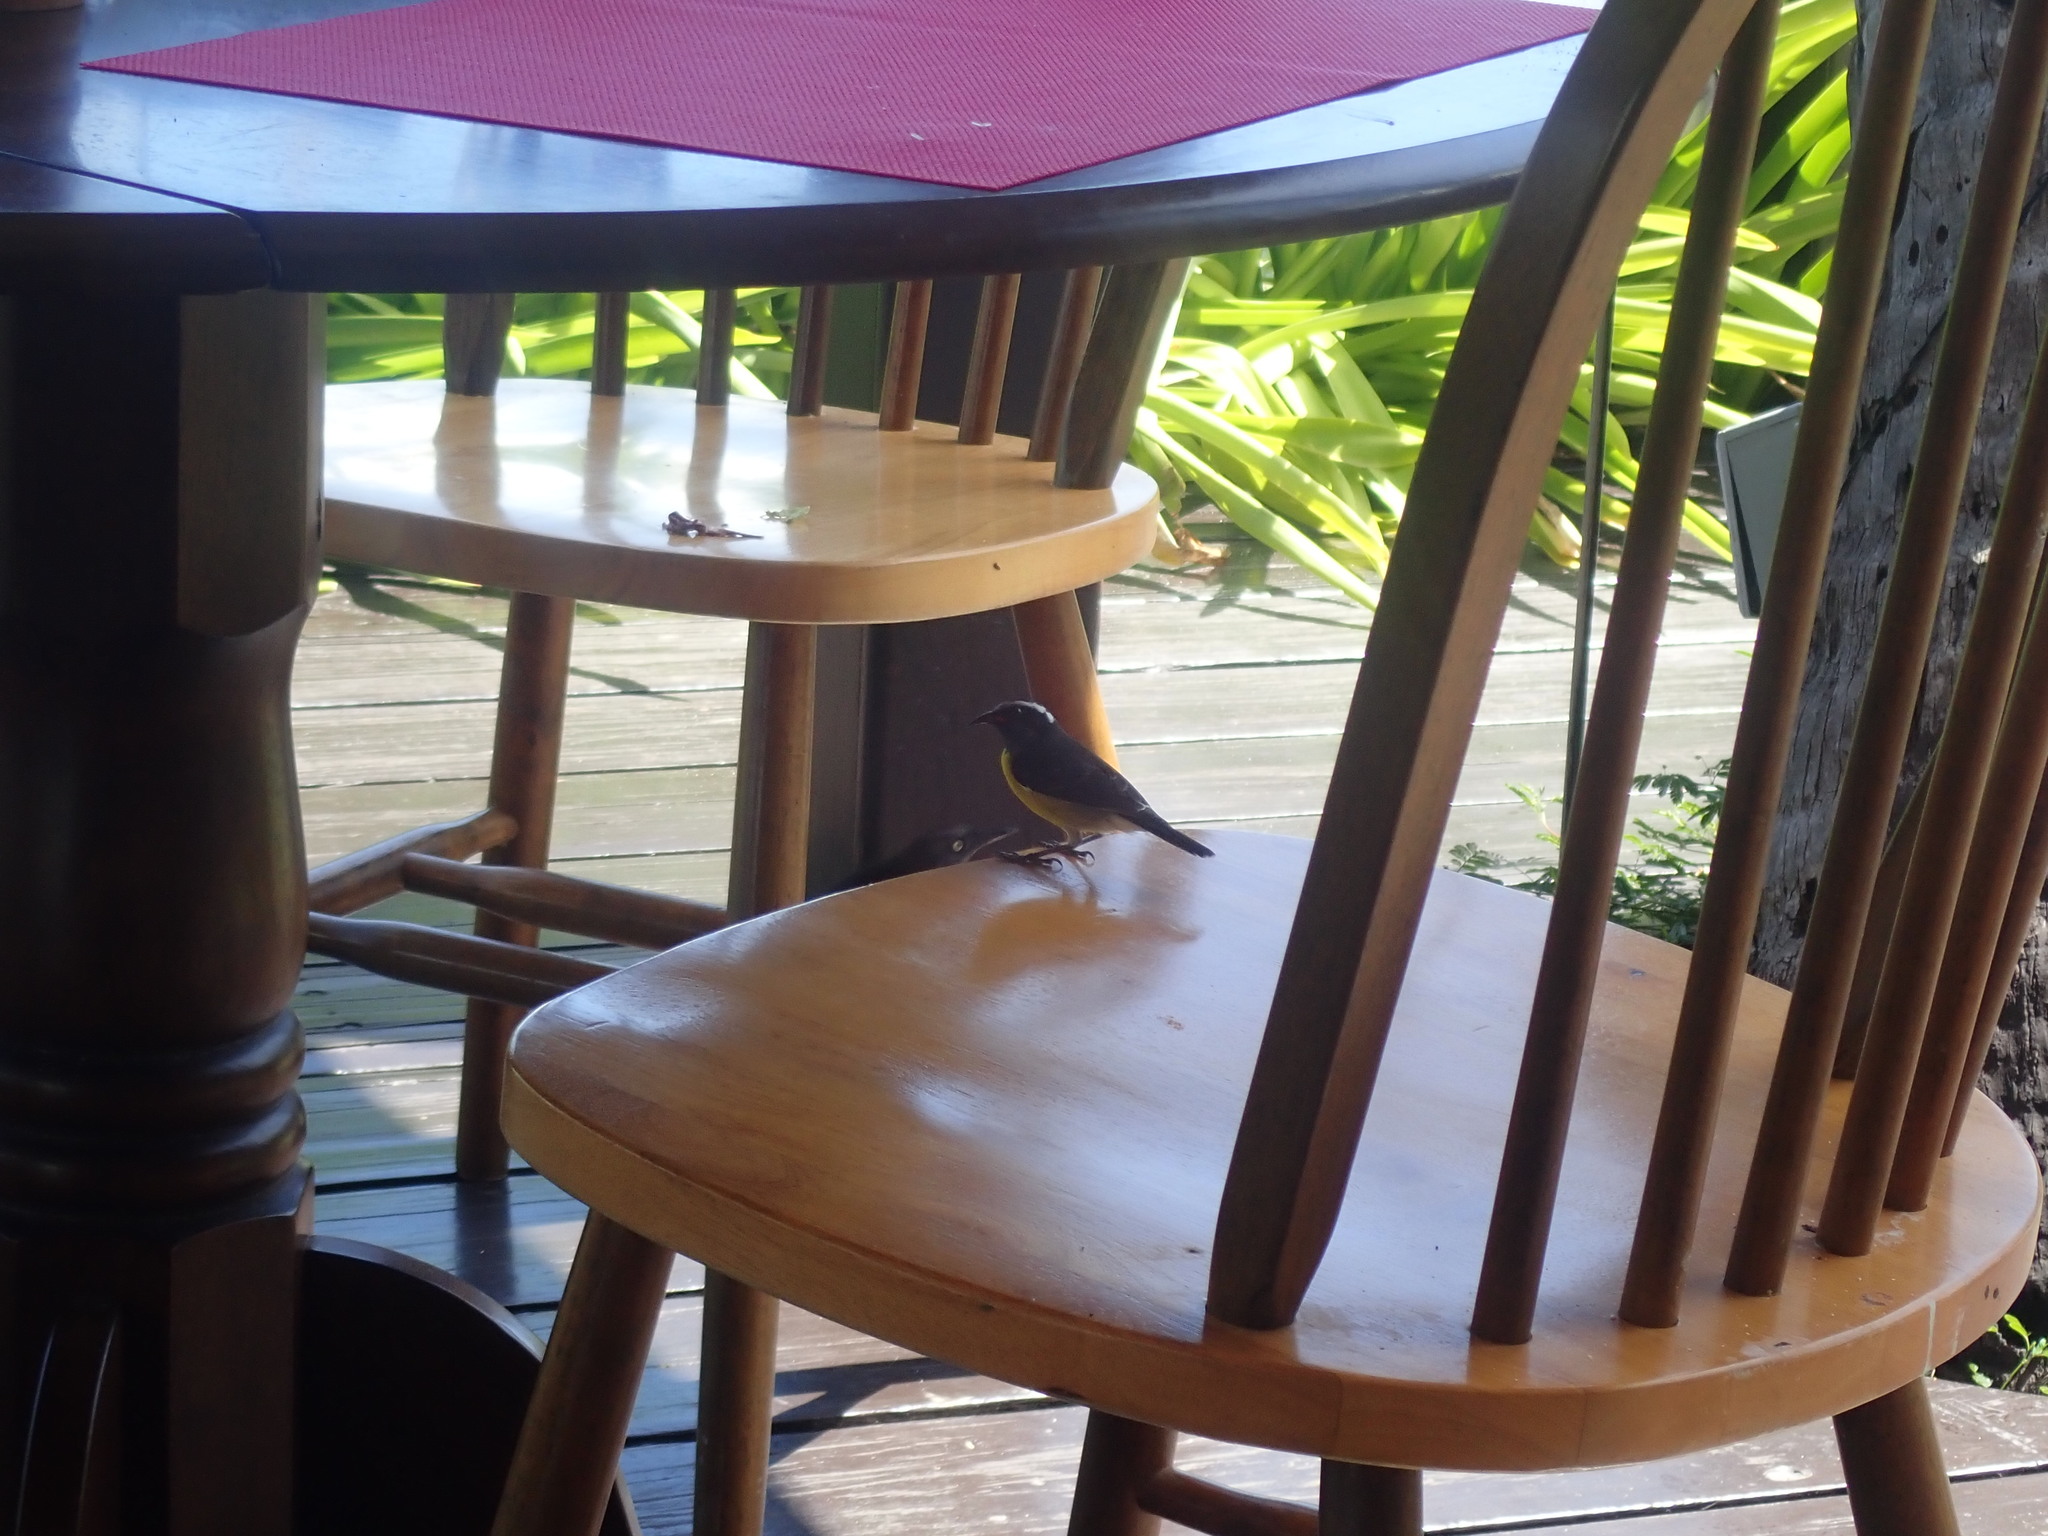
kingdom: Animalia
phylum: Chordata
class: Aves
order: Passeriformes
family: Thraupidae
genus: Coereba
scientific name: Coereba flaveola
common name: Bananaquit
